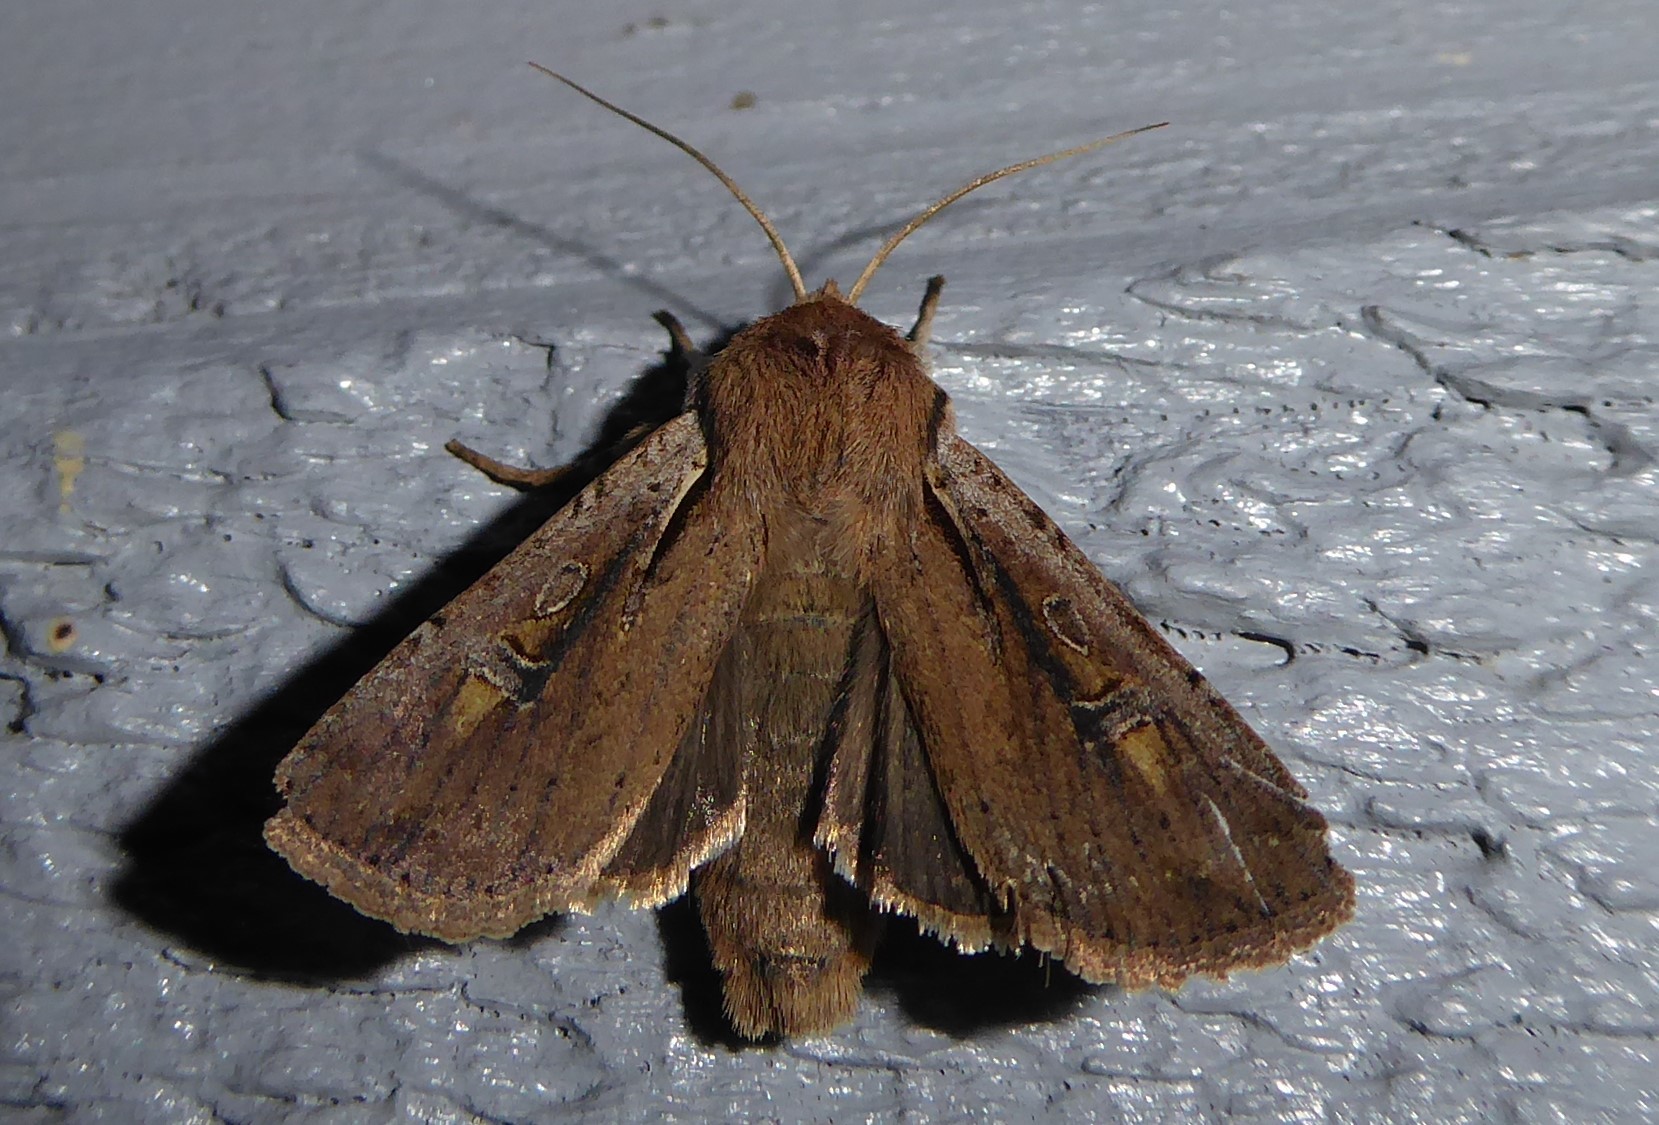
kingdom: Animalia
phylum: Arthropoda
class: Insecta
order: Lepidoptera
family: Noctuidae
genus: Ichneutica
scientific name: Ichneutica atristriga
